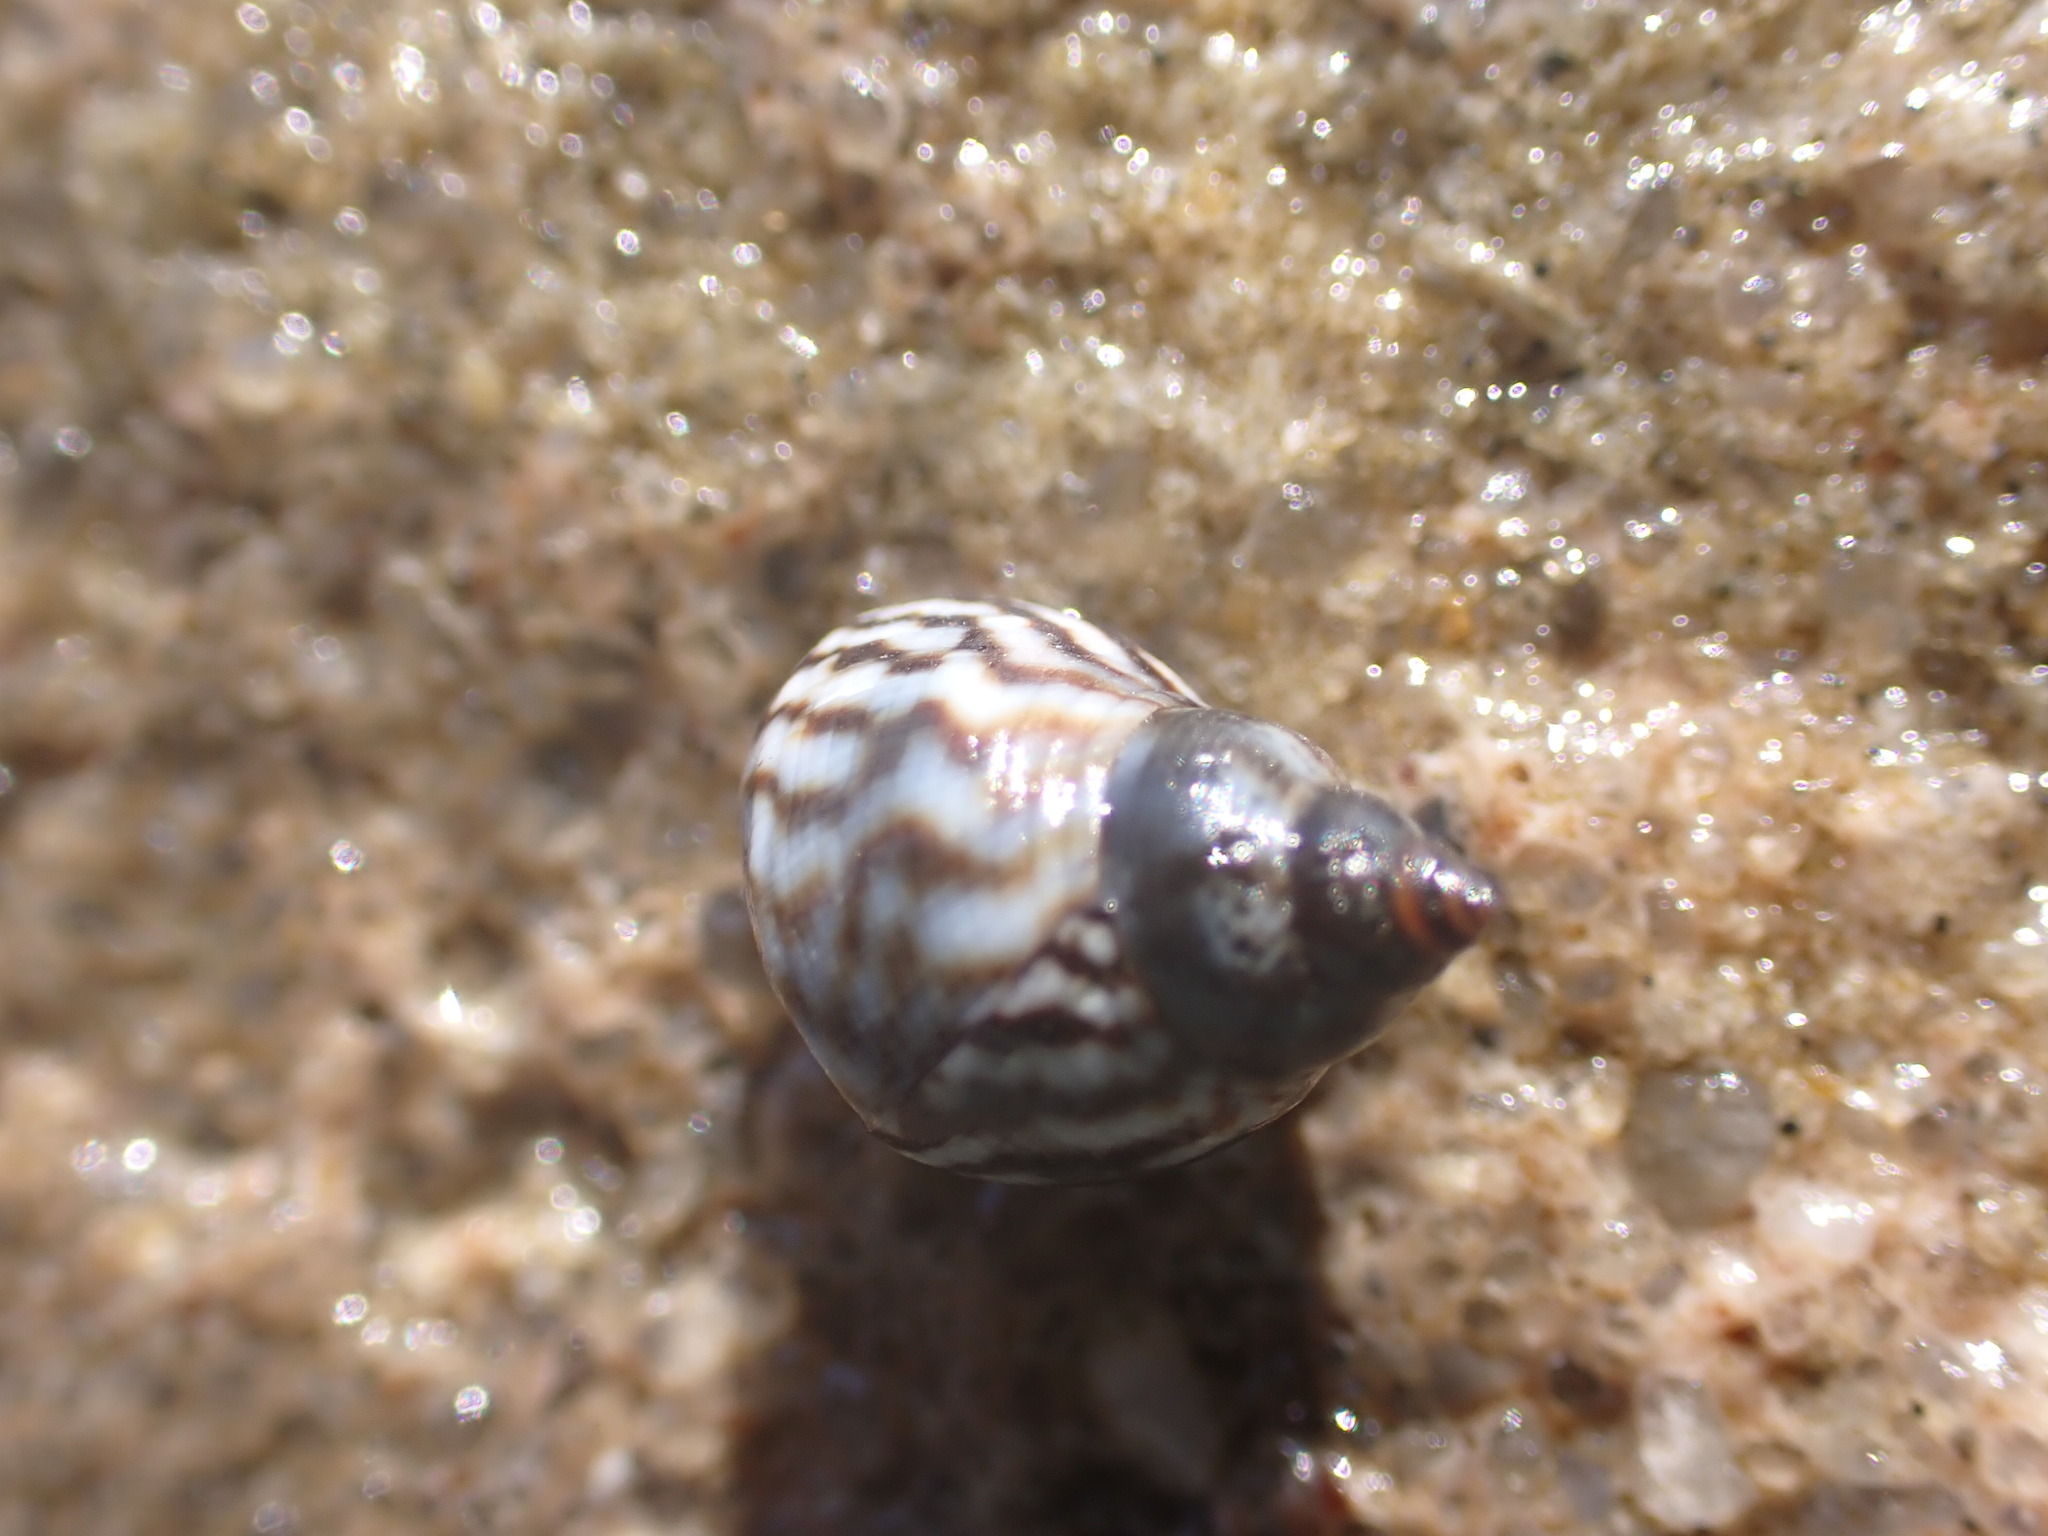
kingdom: Animalia
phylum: Mollusca
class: Gastropoda
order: Littorinimorpha
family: Littorinidae
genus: Echinolittorina
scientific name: Echinolittorina placida
